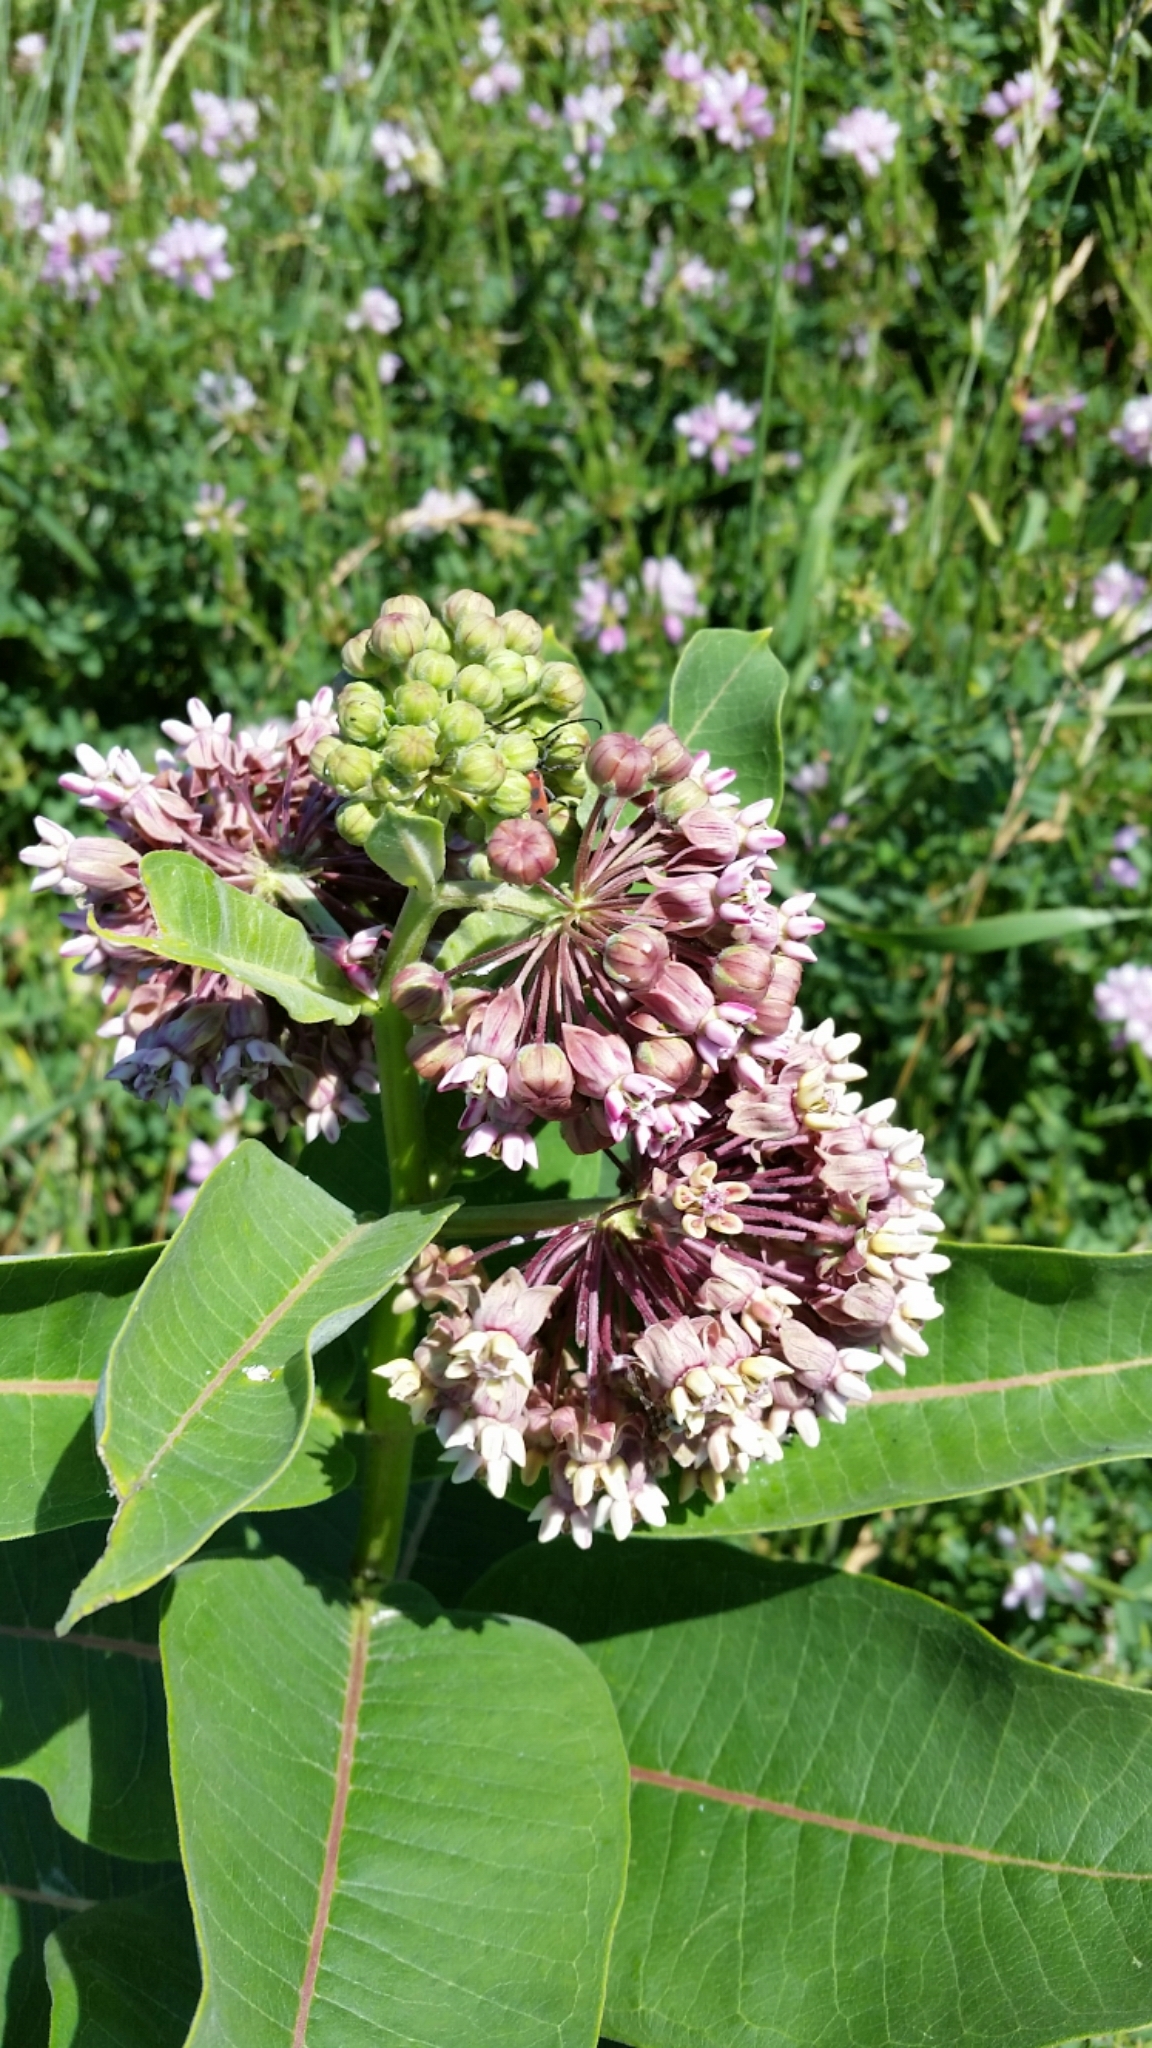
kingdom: Plantae
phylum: Tracheophyta
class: Magnoliopsida
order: Gentianales
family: Apocynaceae
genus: Asclepias
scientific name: Asclepias syriaca
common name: Common milkweed
